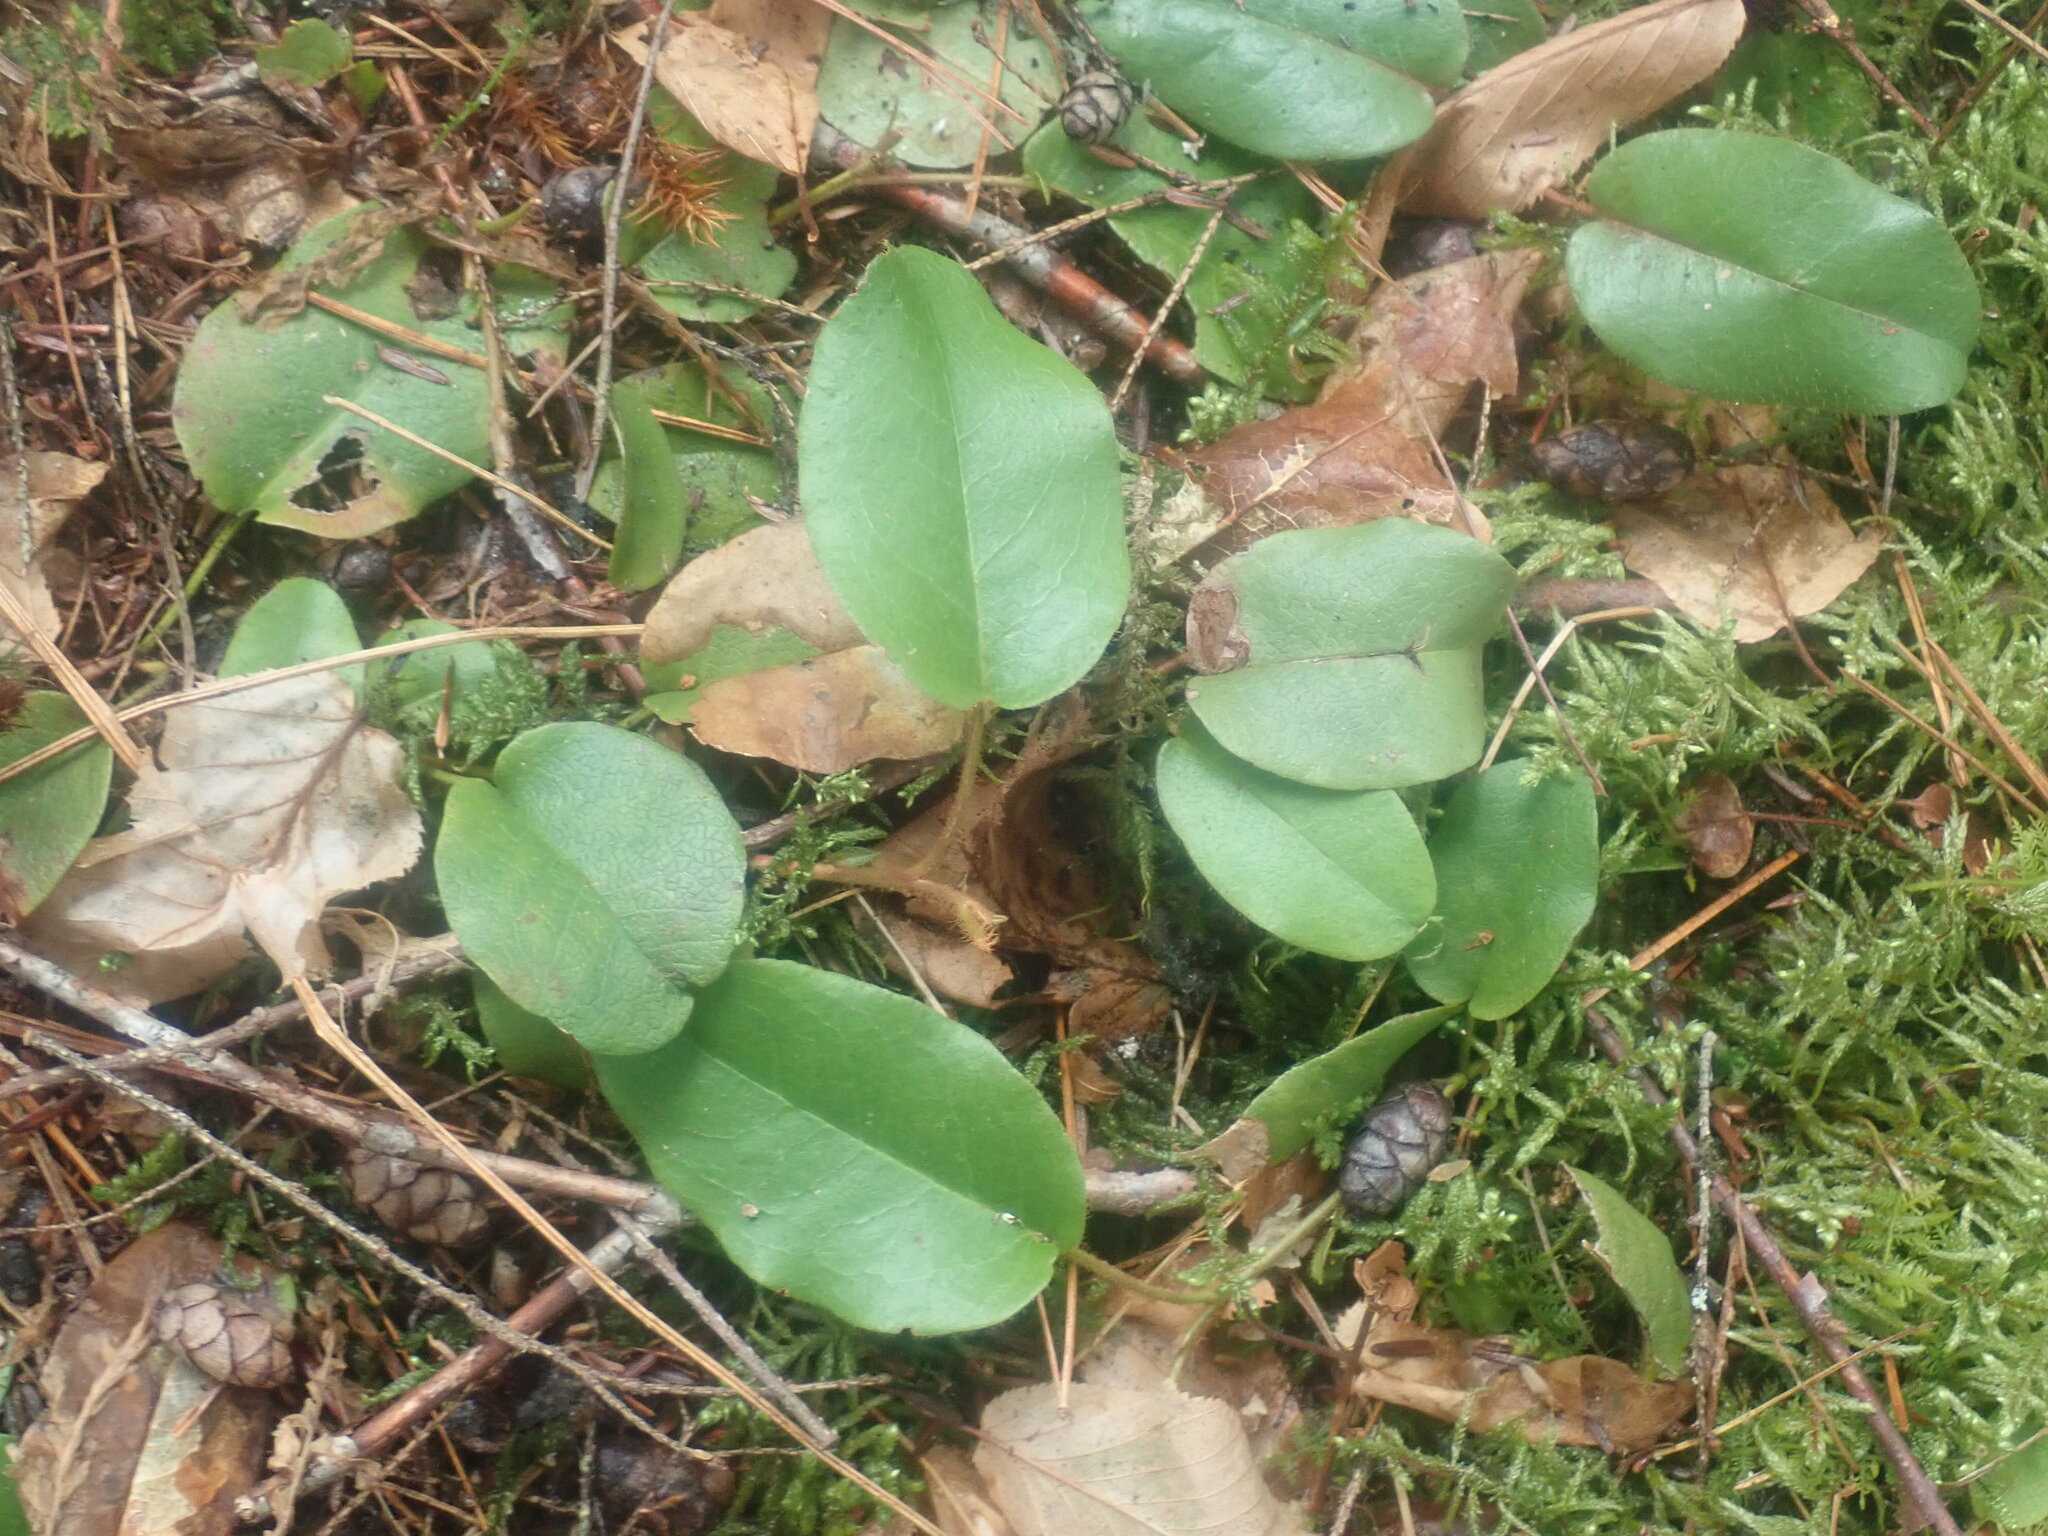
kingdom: Plantae
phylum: Tracheophyta
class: Magnoliopsida
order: Ericales
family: Ericaceae
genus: Epigaea
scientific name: Epigaea repens
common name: Gravelroot
